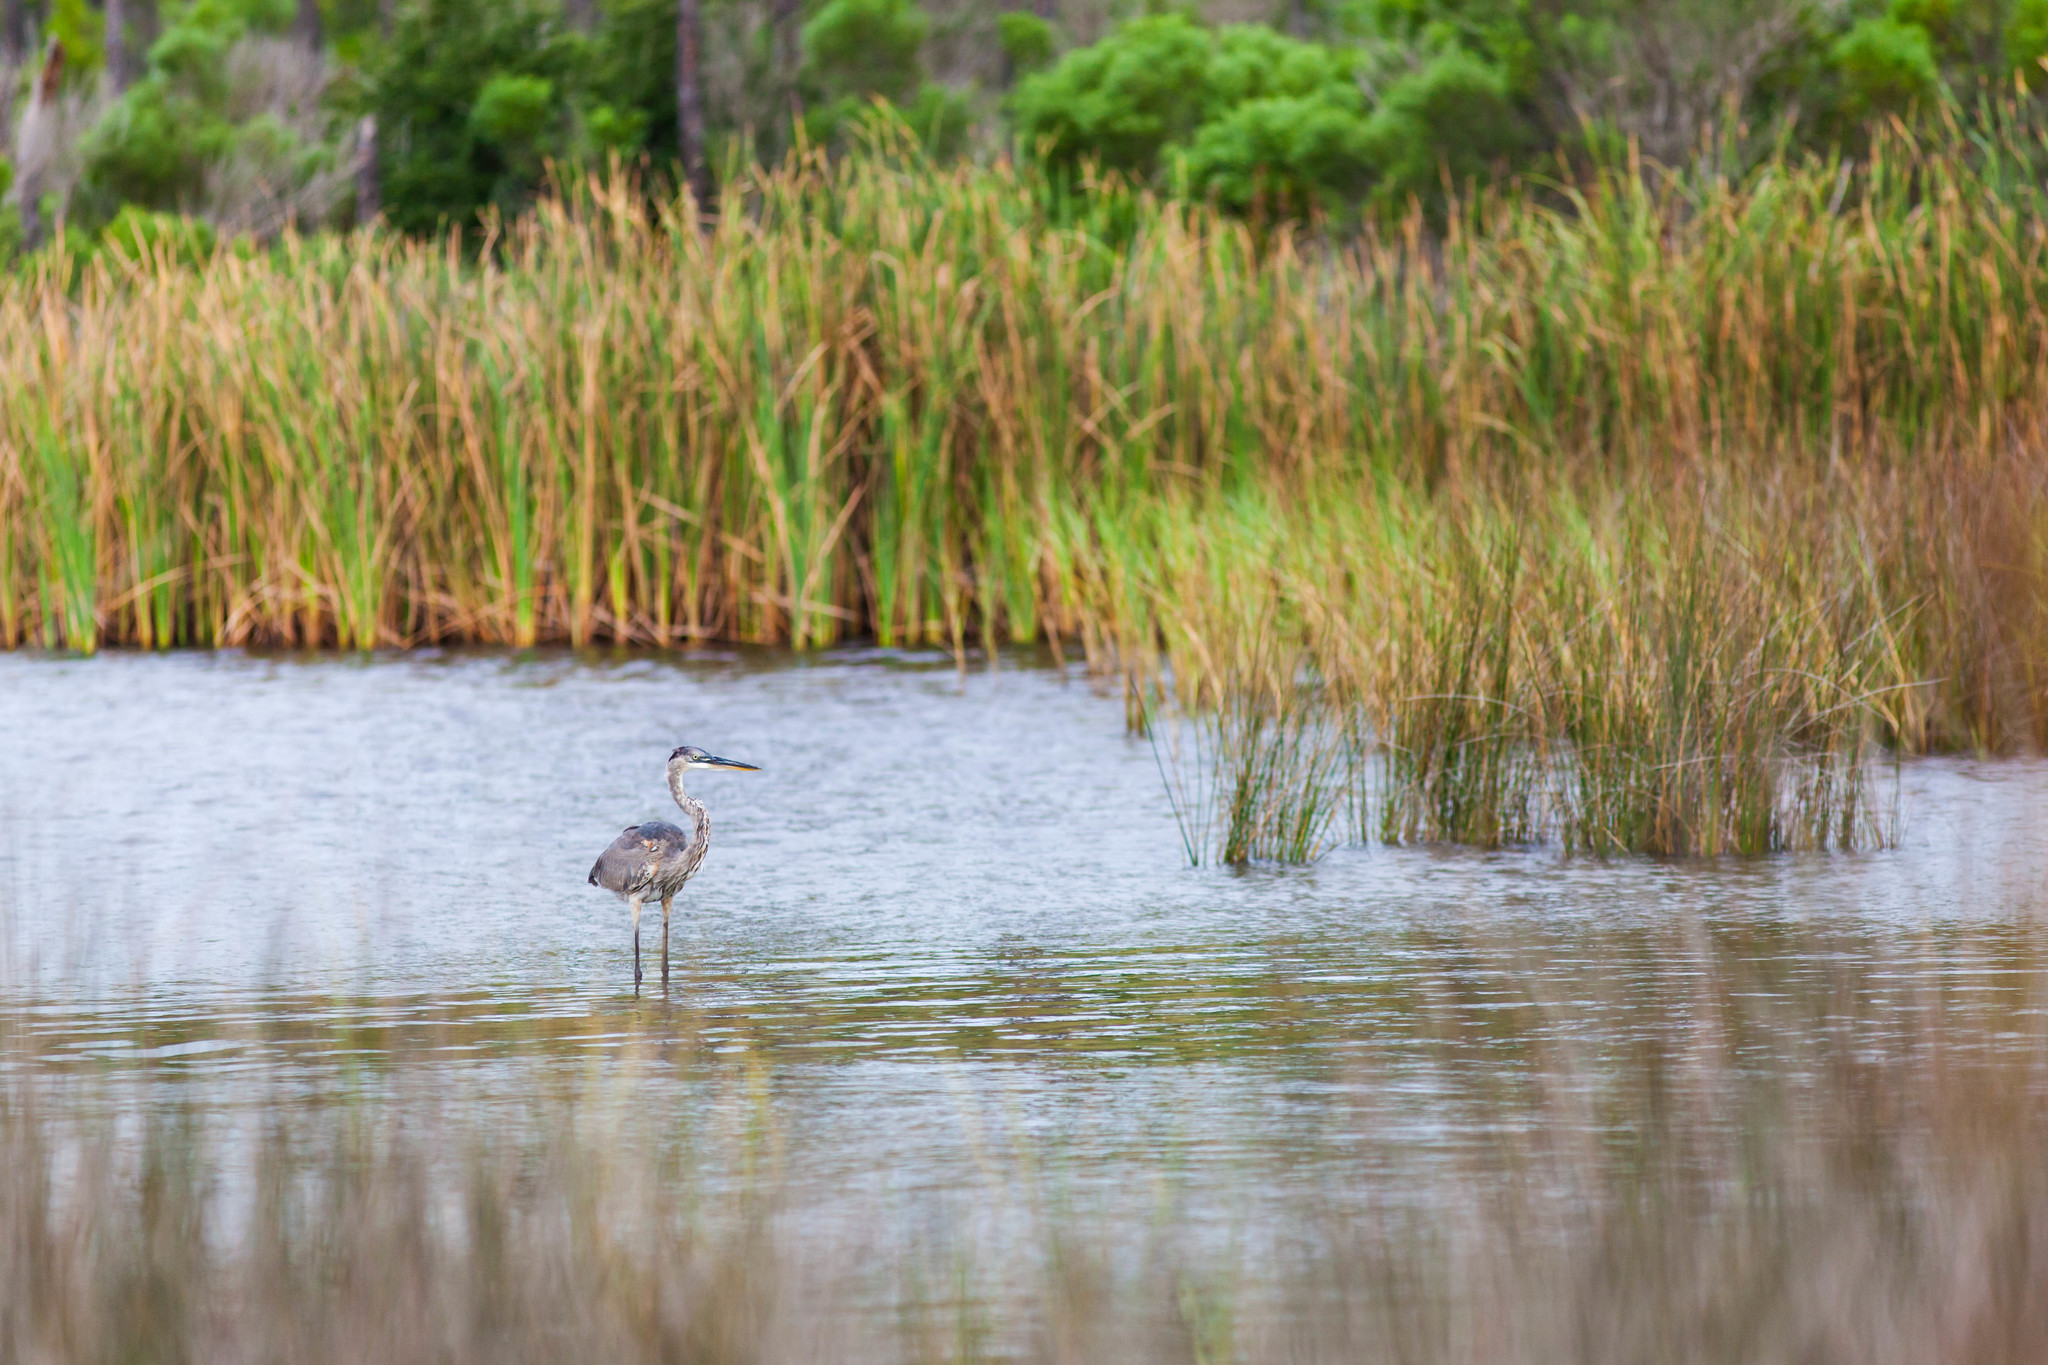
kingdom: Animalia
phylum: Chordata
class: Aves
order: Pelecaniformes
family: Ardeidae
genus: Ardea
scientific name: Ardea herodias
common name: Great blue heron
